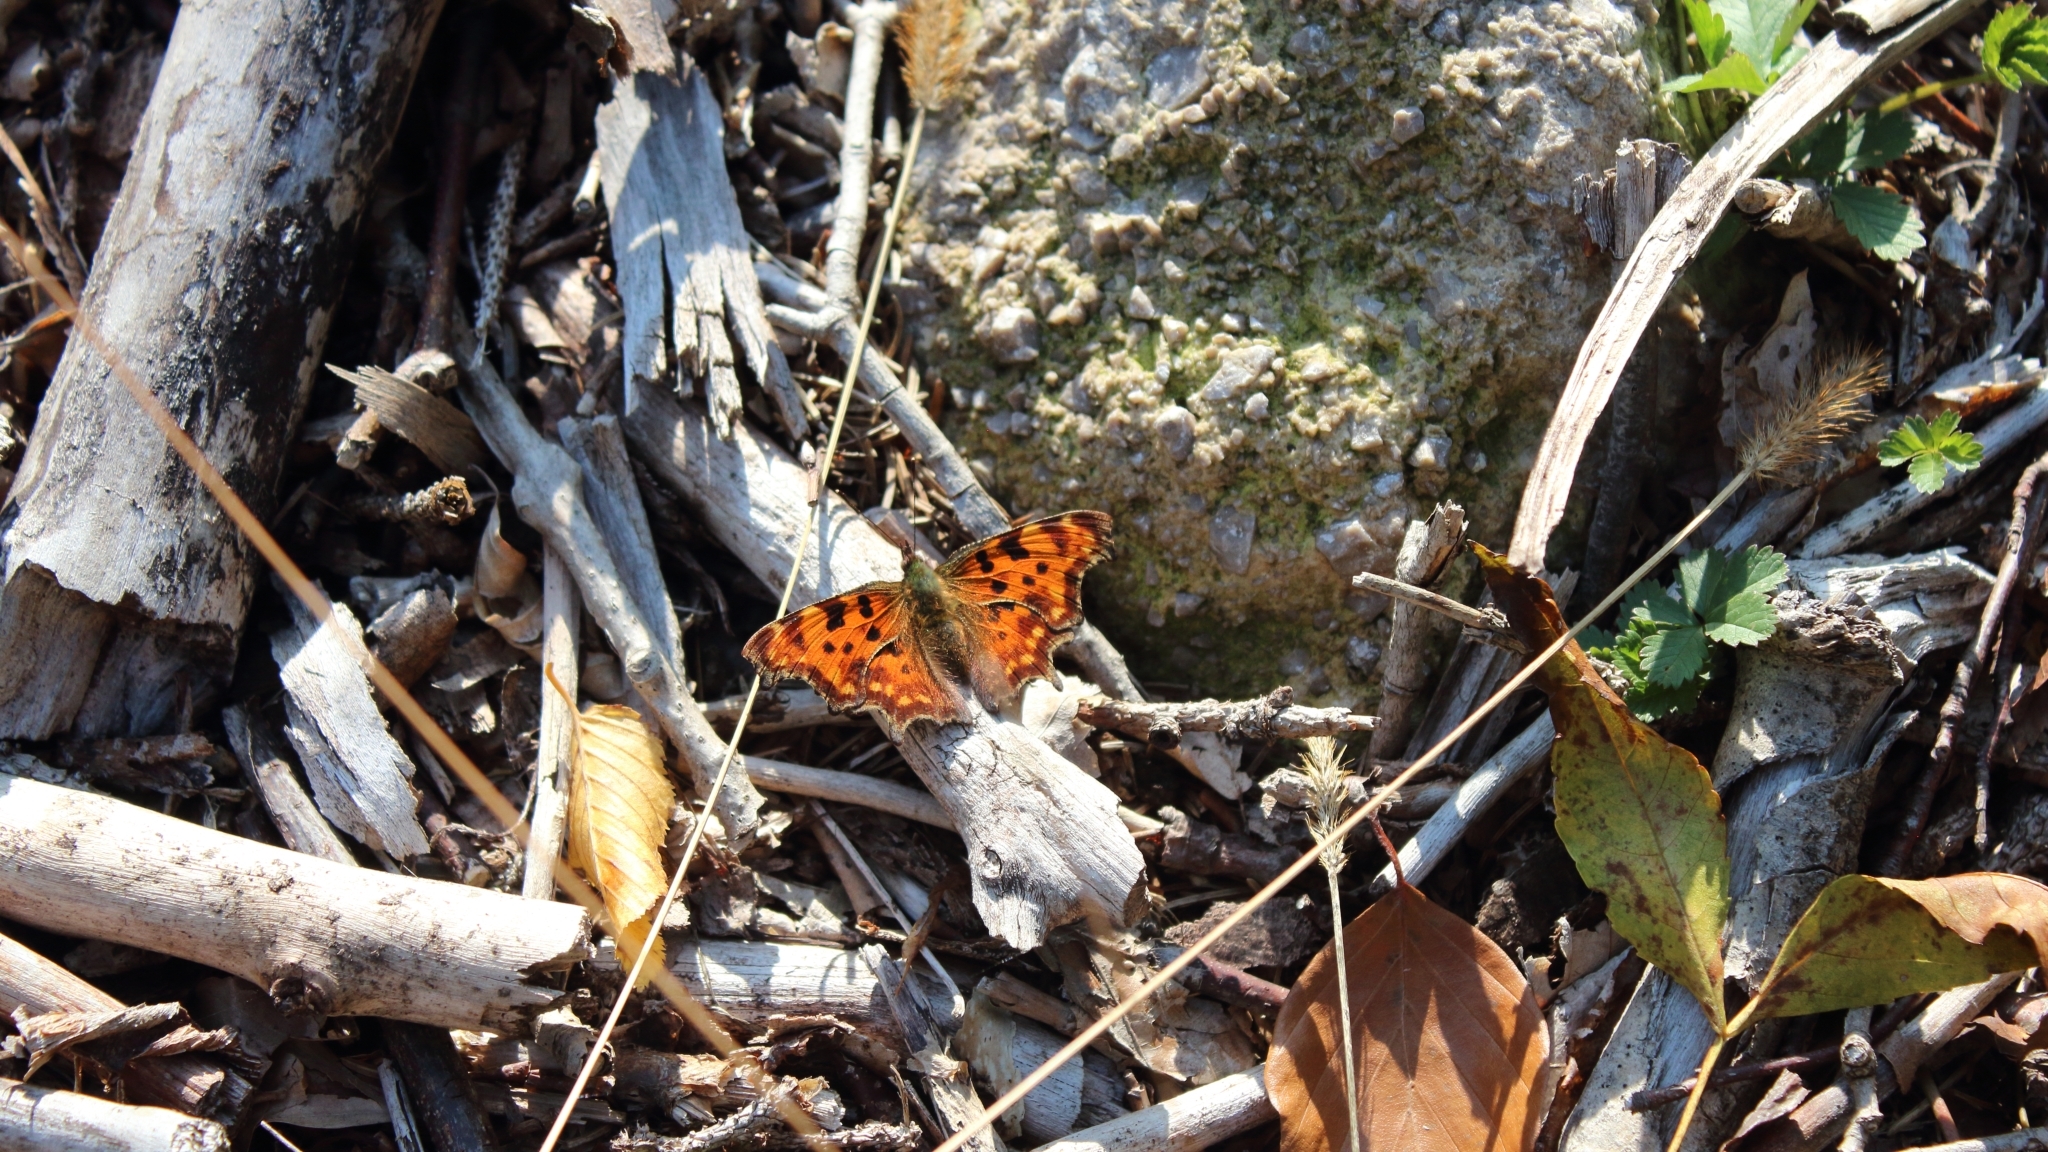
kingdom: Animalia
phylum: Arthropoda
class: Insecta
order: Lepidoptera
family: Nymphalidae
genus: Polygonia
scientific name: Polygonia c-album
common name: Comma
